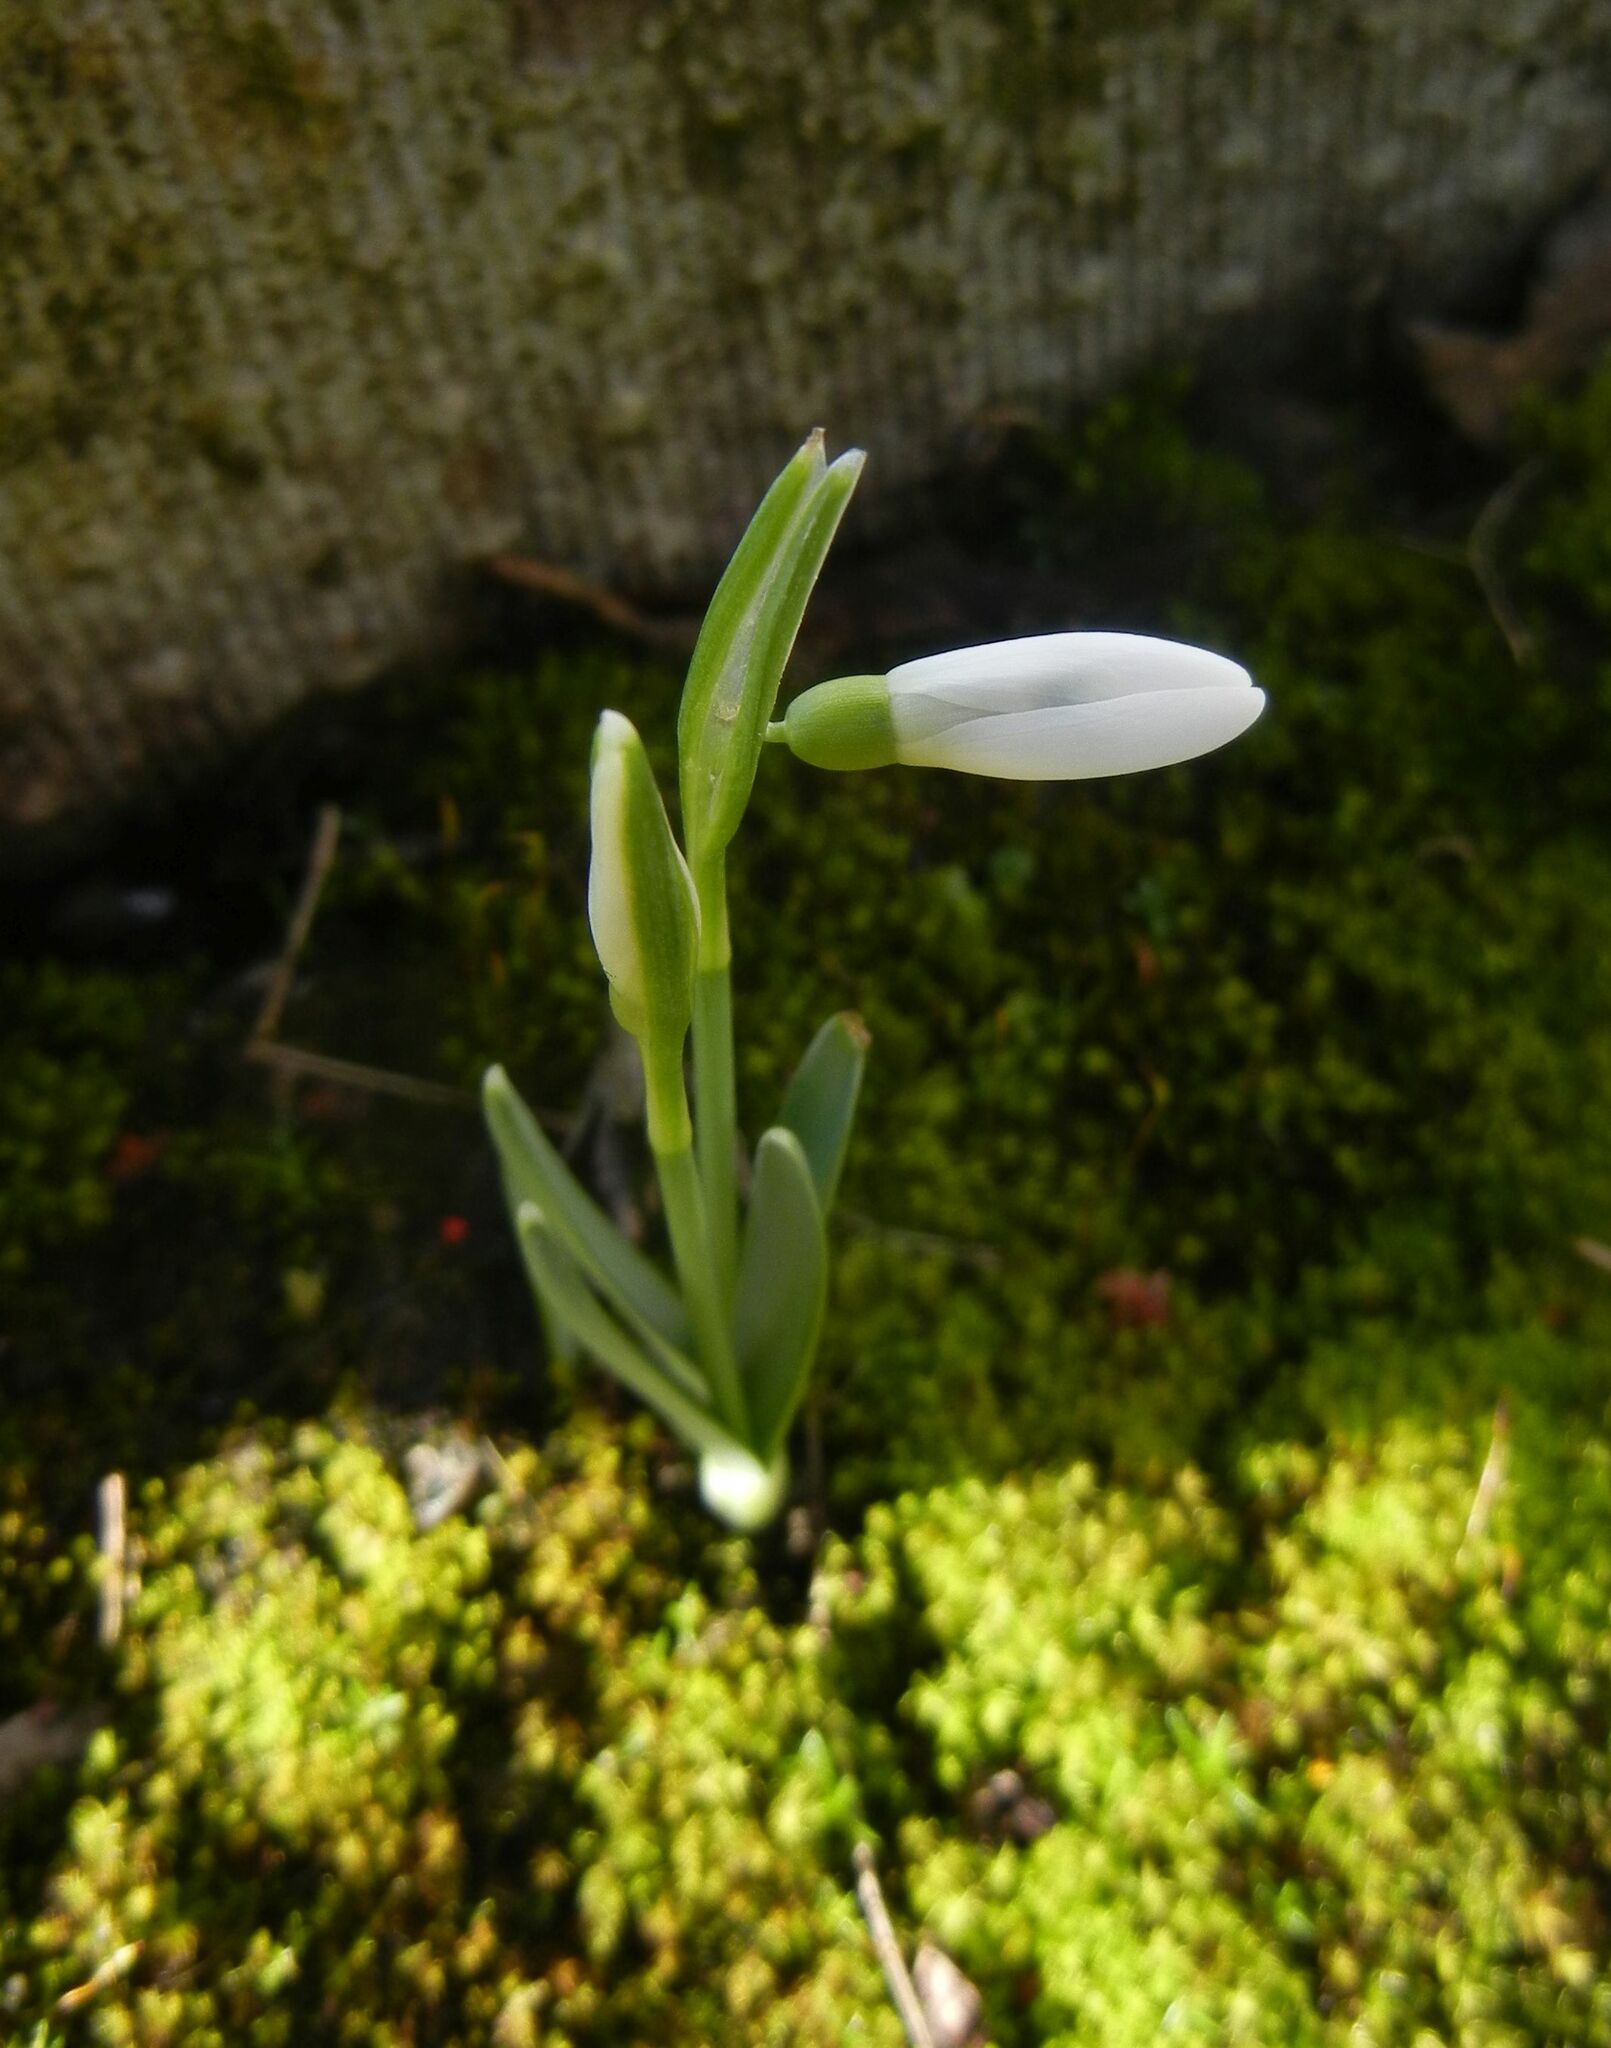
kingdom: Plantae
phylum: Tracheophyta
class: Liliopsida
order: Asparagales
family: Amaryllidaceae
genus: Galanthus
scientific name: Galanthus nivalis
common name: Snowdrop
